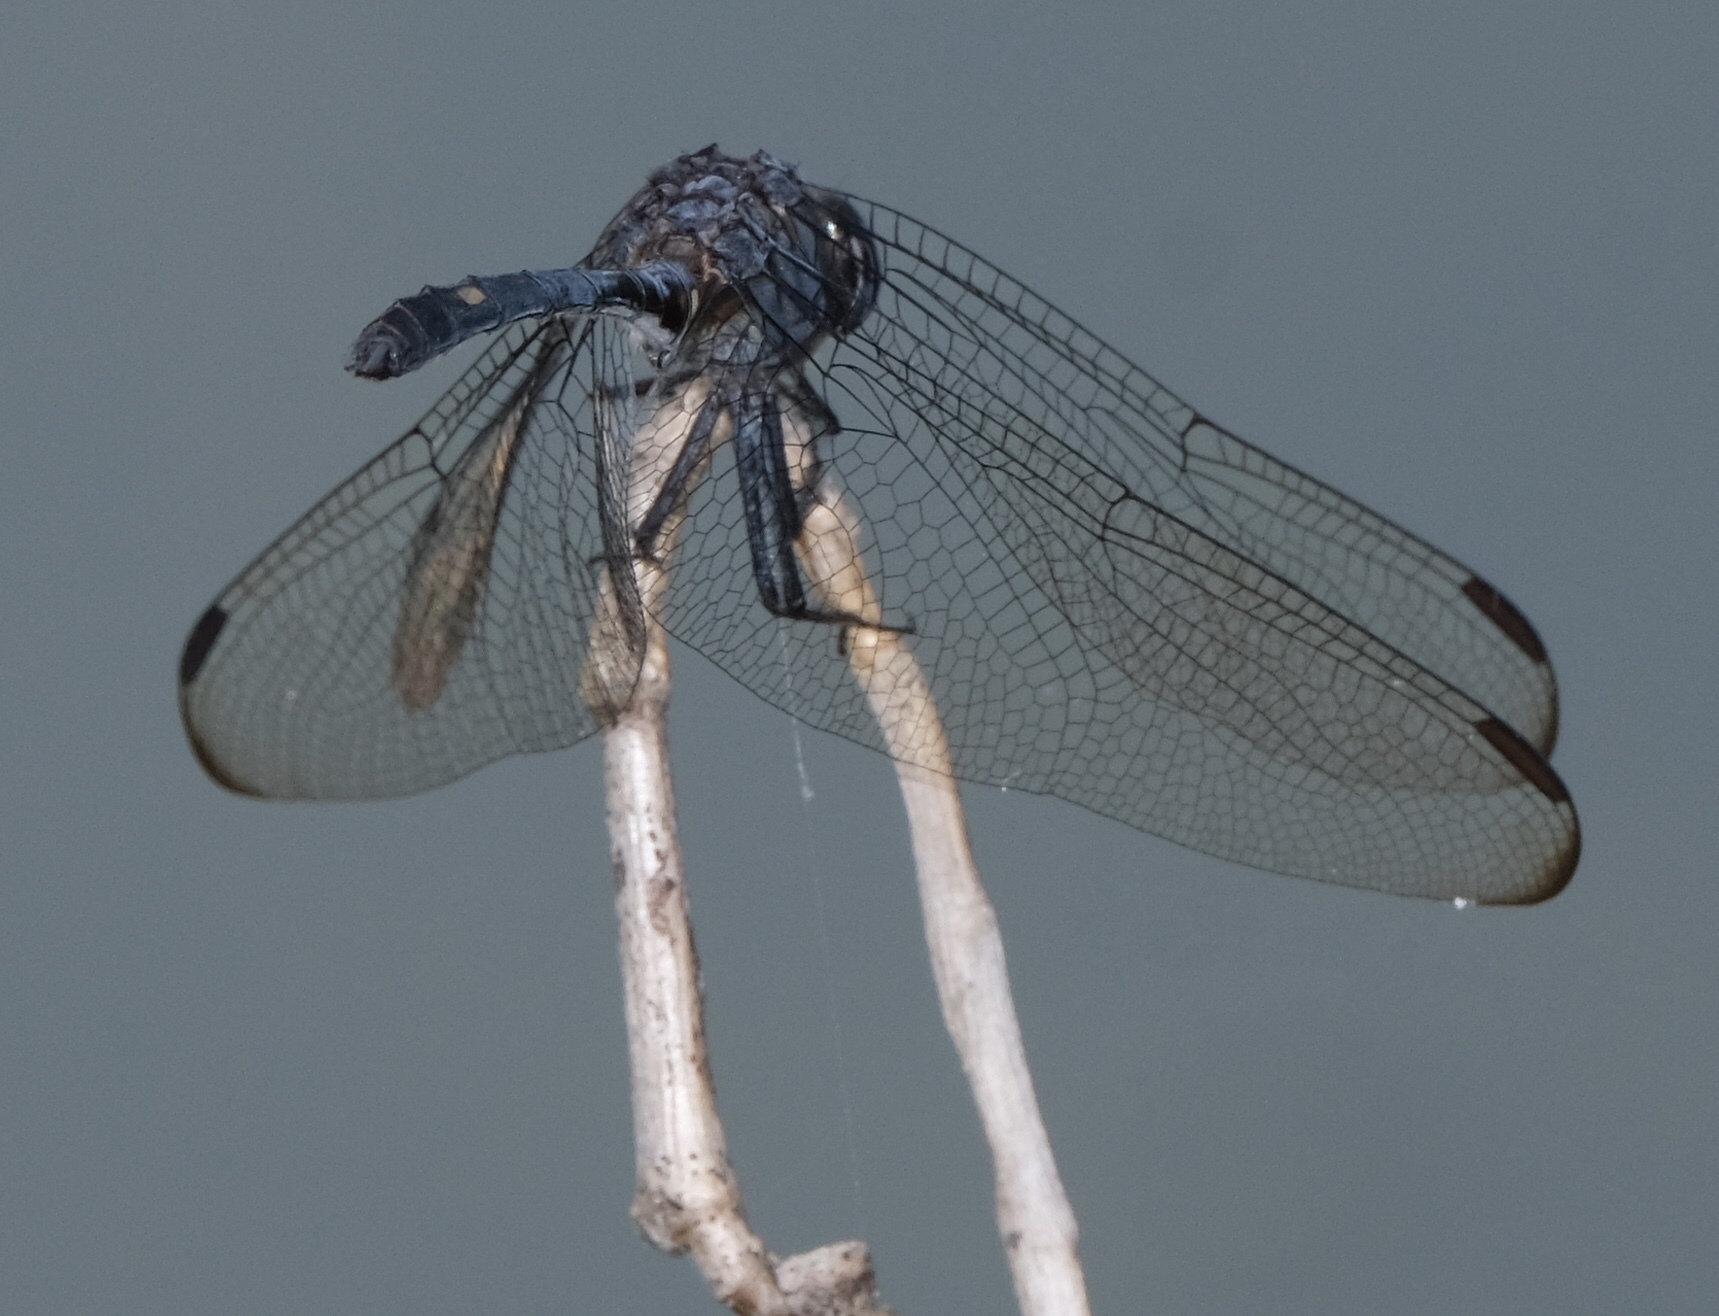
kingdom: Animalia
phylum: Arthropoda
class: Insecta
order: Odonata
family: Libellulidae
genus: Dythemis
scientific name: Dythemis nigrescens
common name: Black setwing
